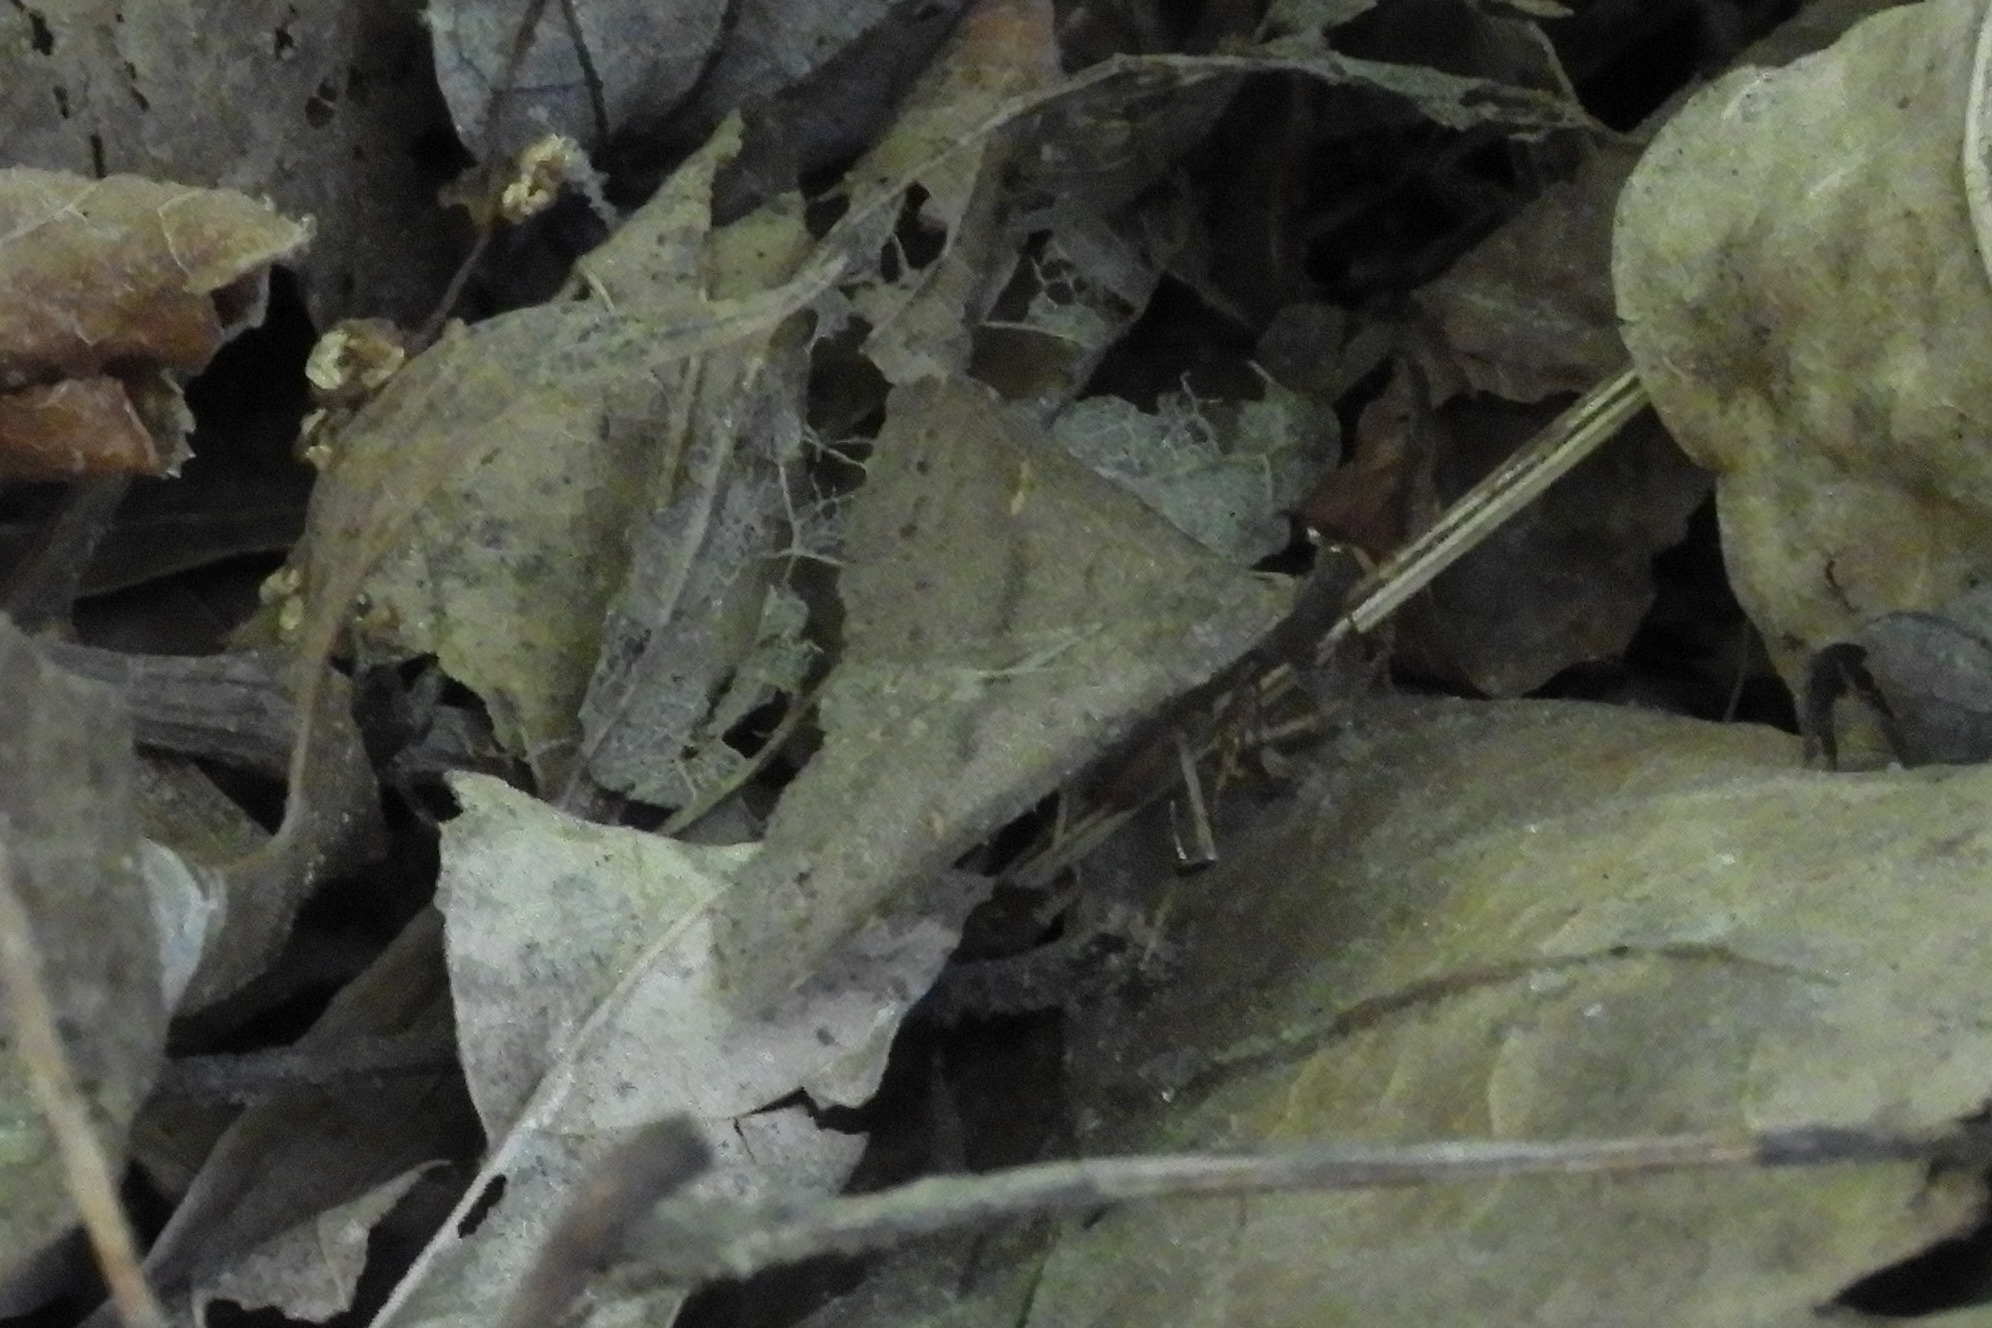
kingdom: Animalia
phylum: Arthropoda
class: Insecta
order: Lepidoptera
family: Erebidae
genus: Renia
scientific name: Renia adspergillus
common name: Speckled renia moth
